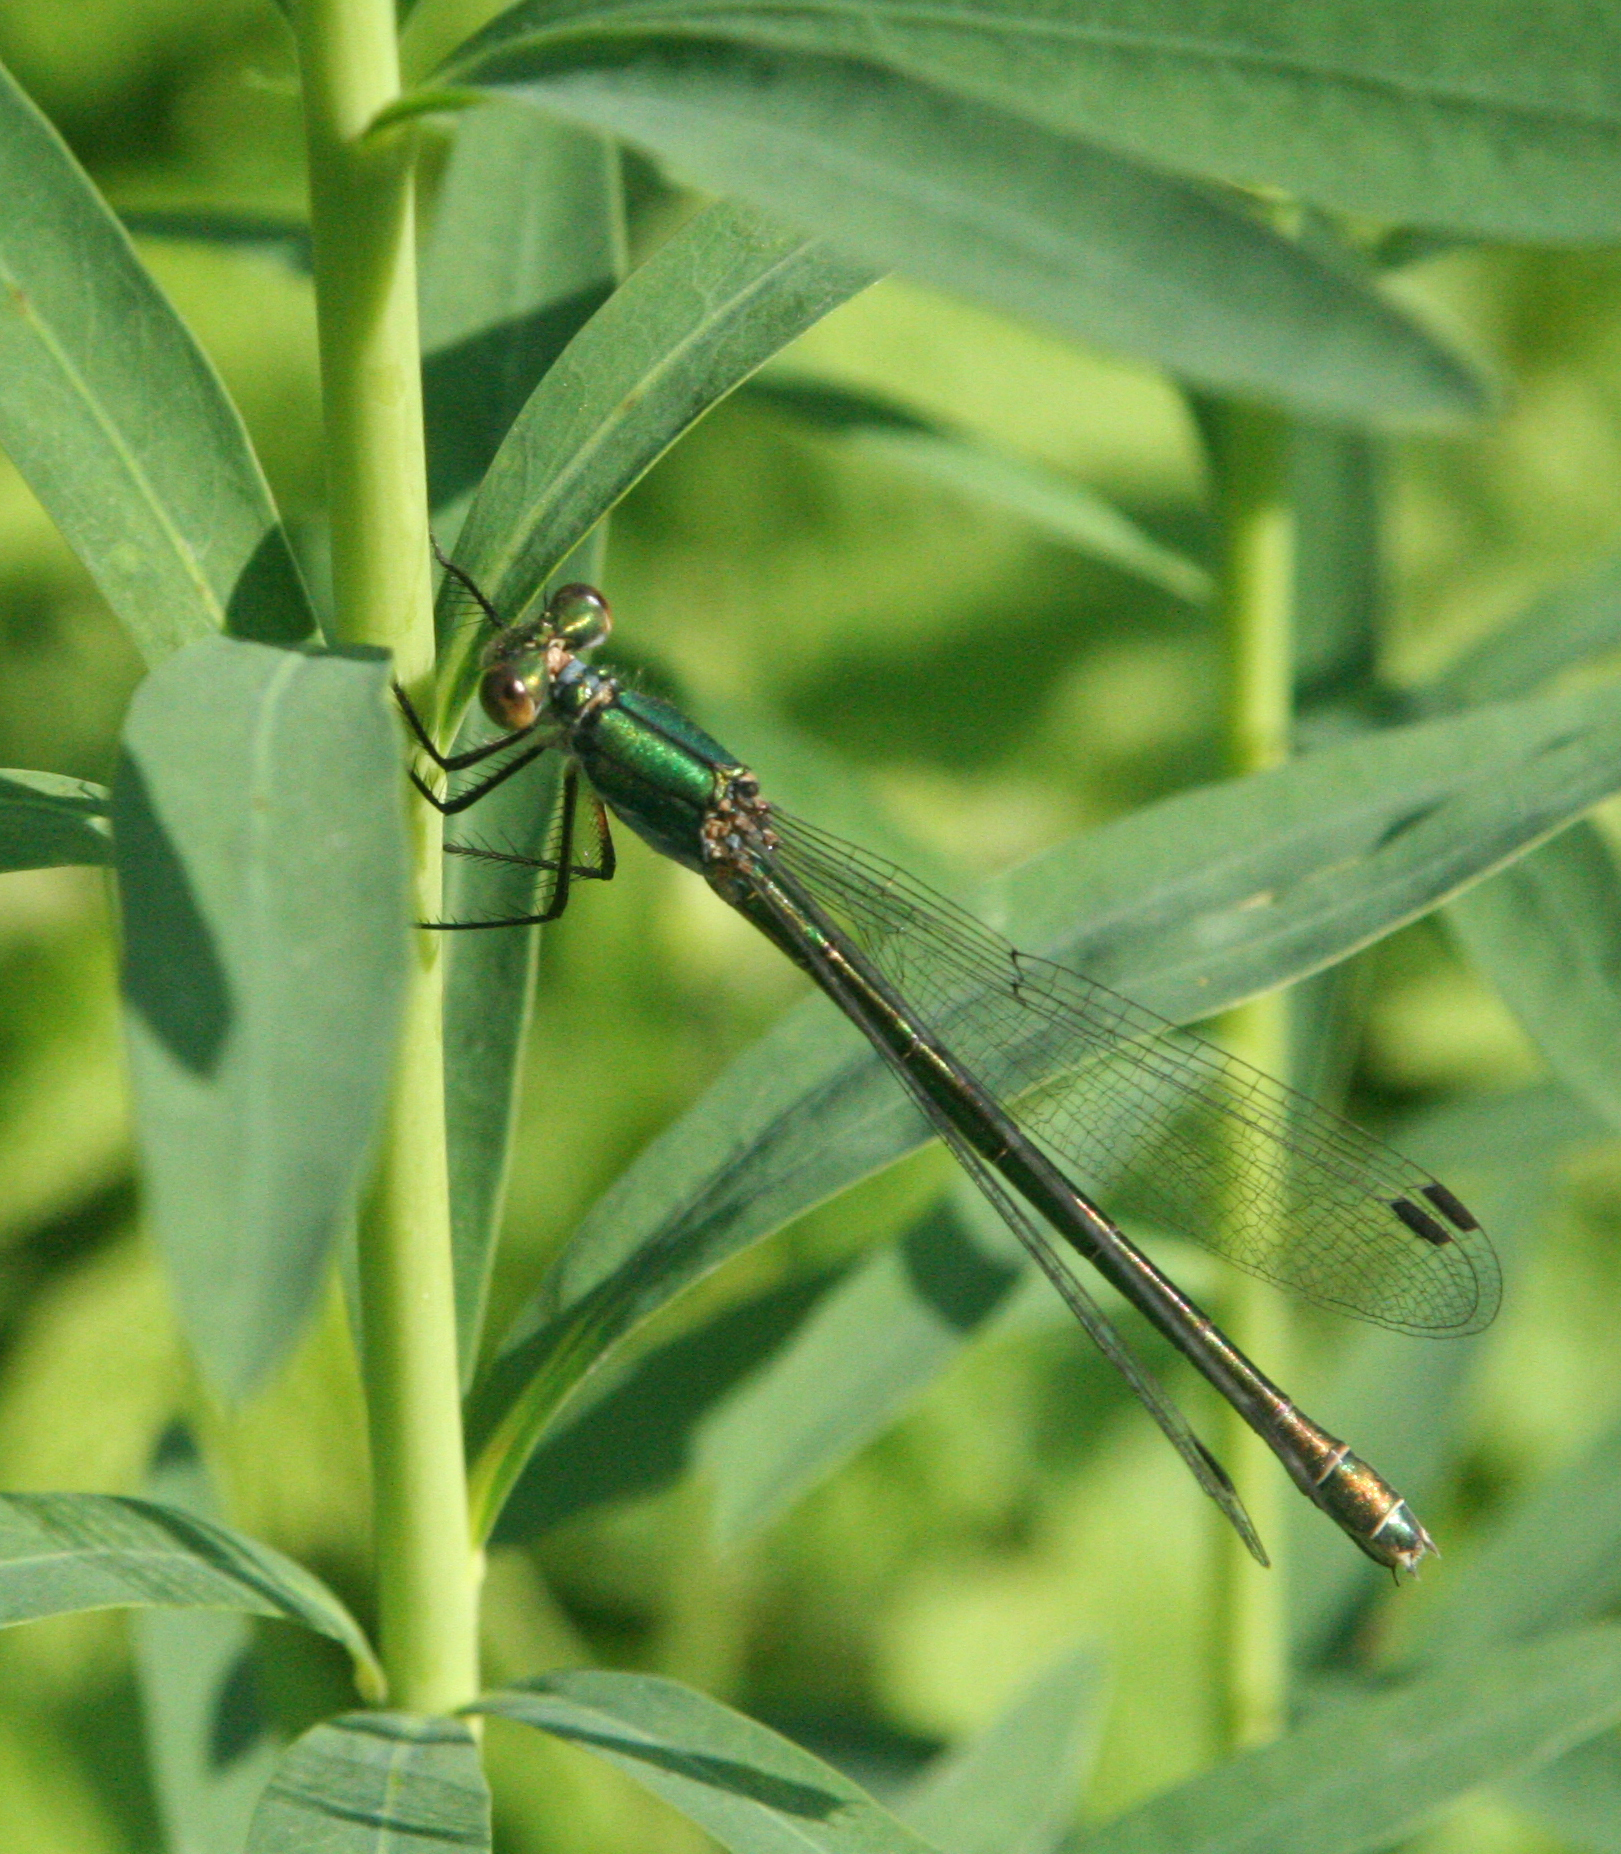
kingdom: Animalia
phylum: Arthropoda
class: Insecta
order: Odonata
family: Lestidae
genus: Lestes
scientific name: Lestes dryas
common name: Scarce emerald damselfly
